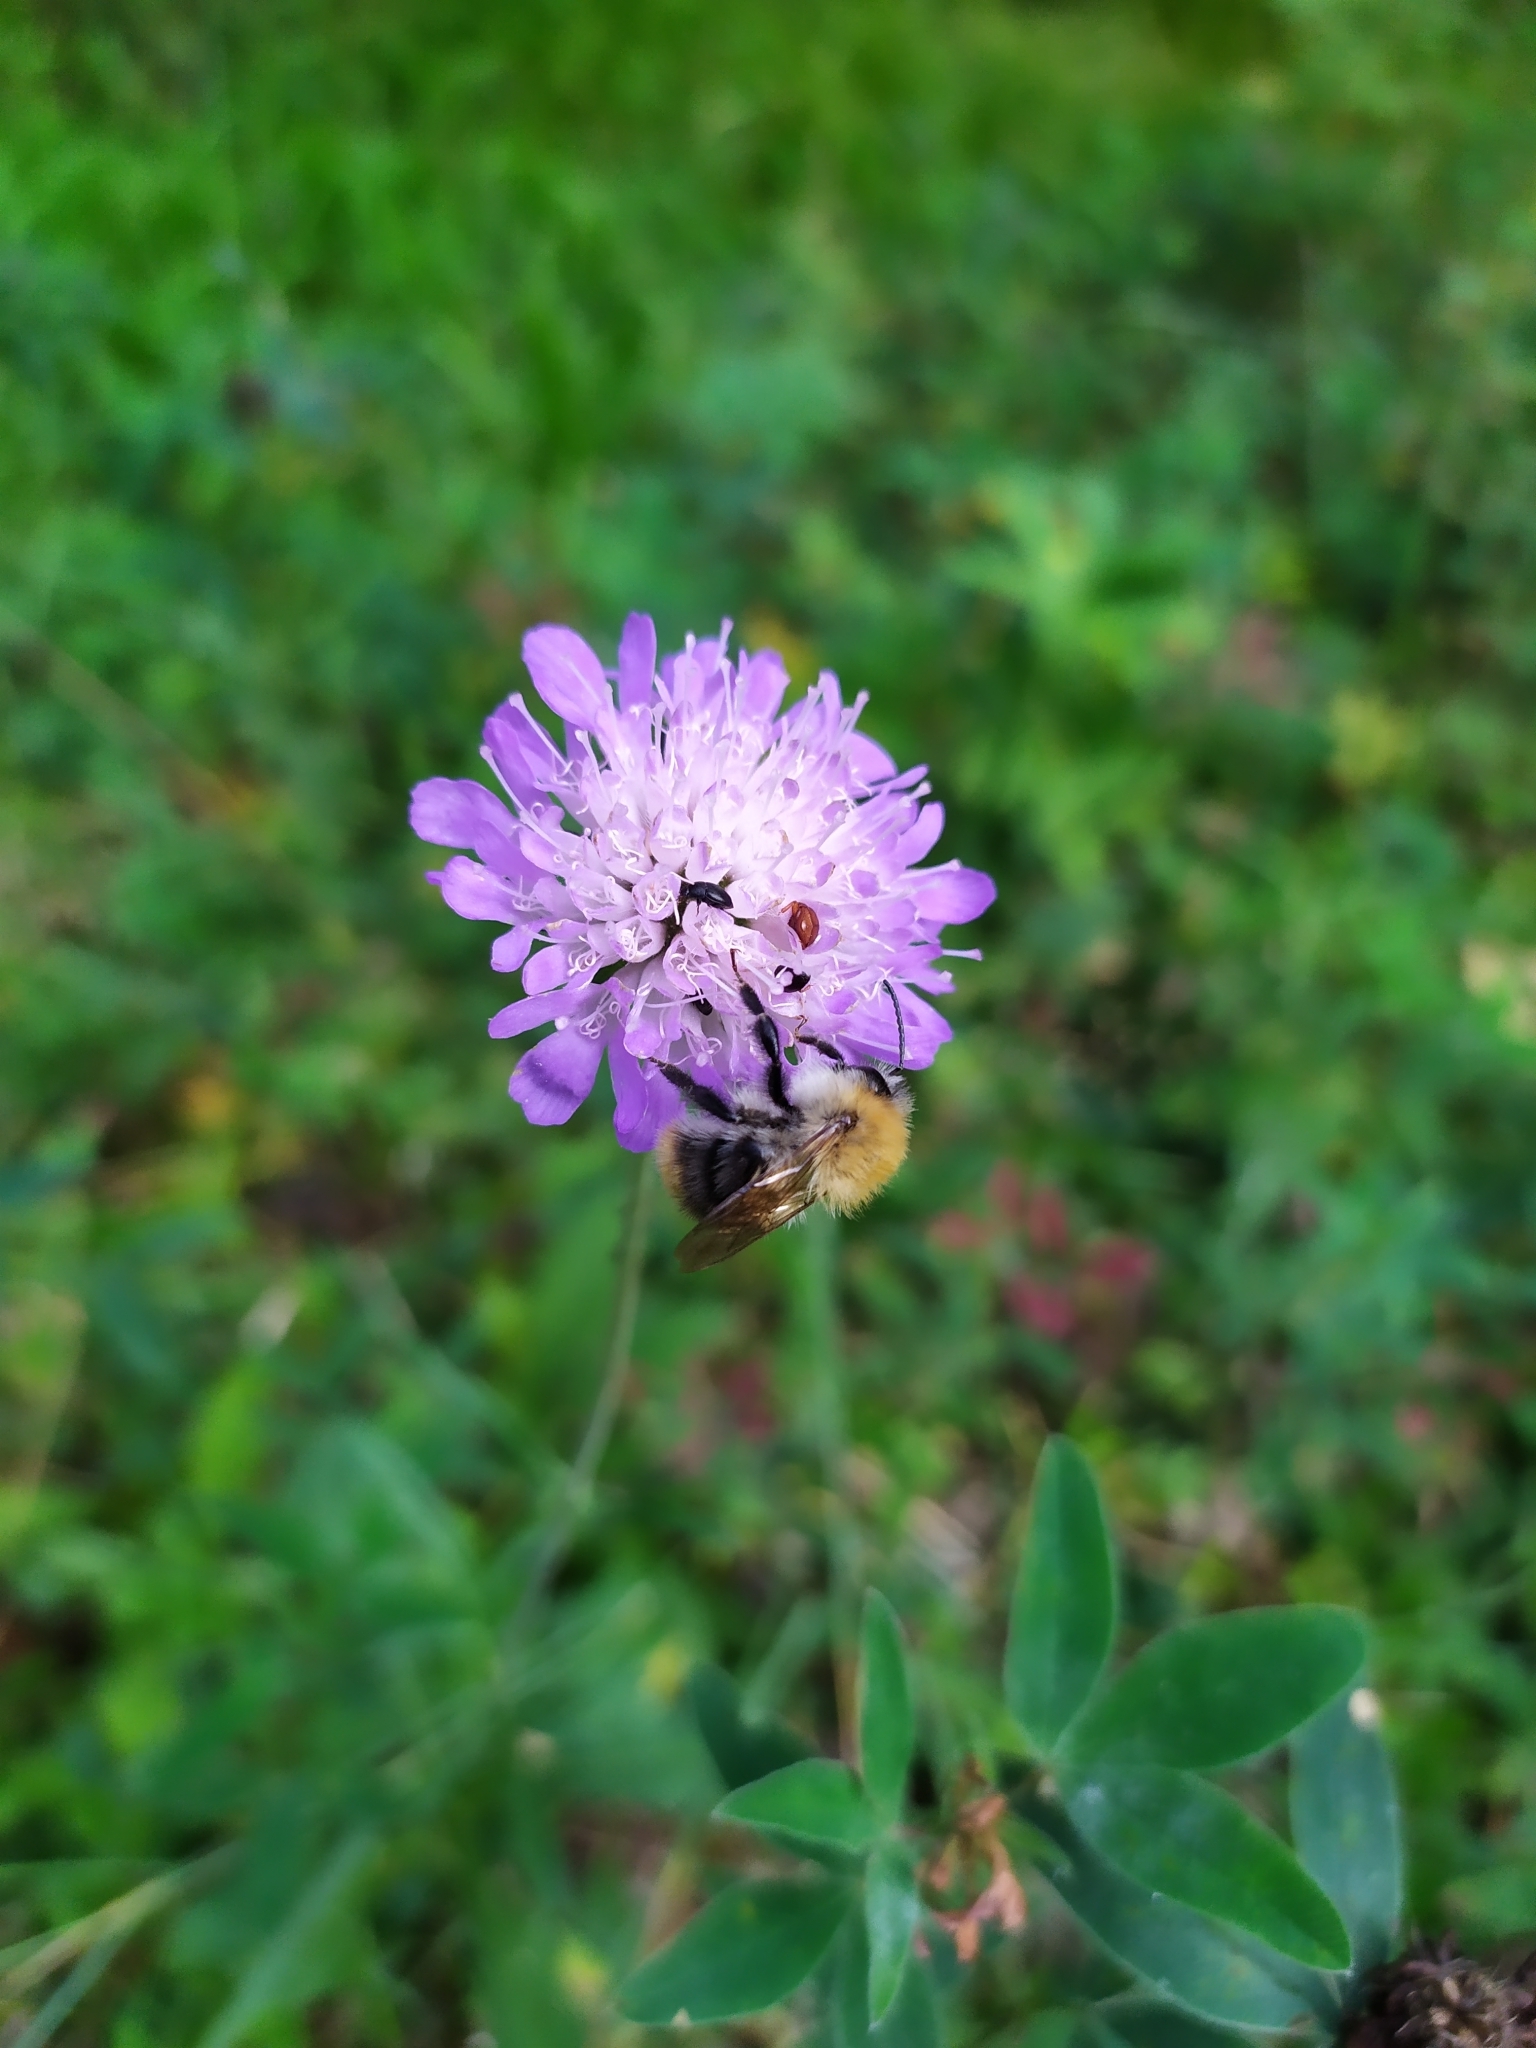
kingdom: Plantae
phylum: Tracheophyta
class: Magnoliopsida
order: Dipsacales
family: Caprifoliaceae
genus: Knautia
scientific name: Knautia arvensis
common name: Field scabiosa
